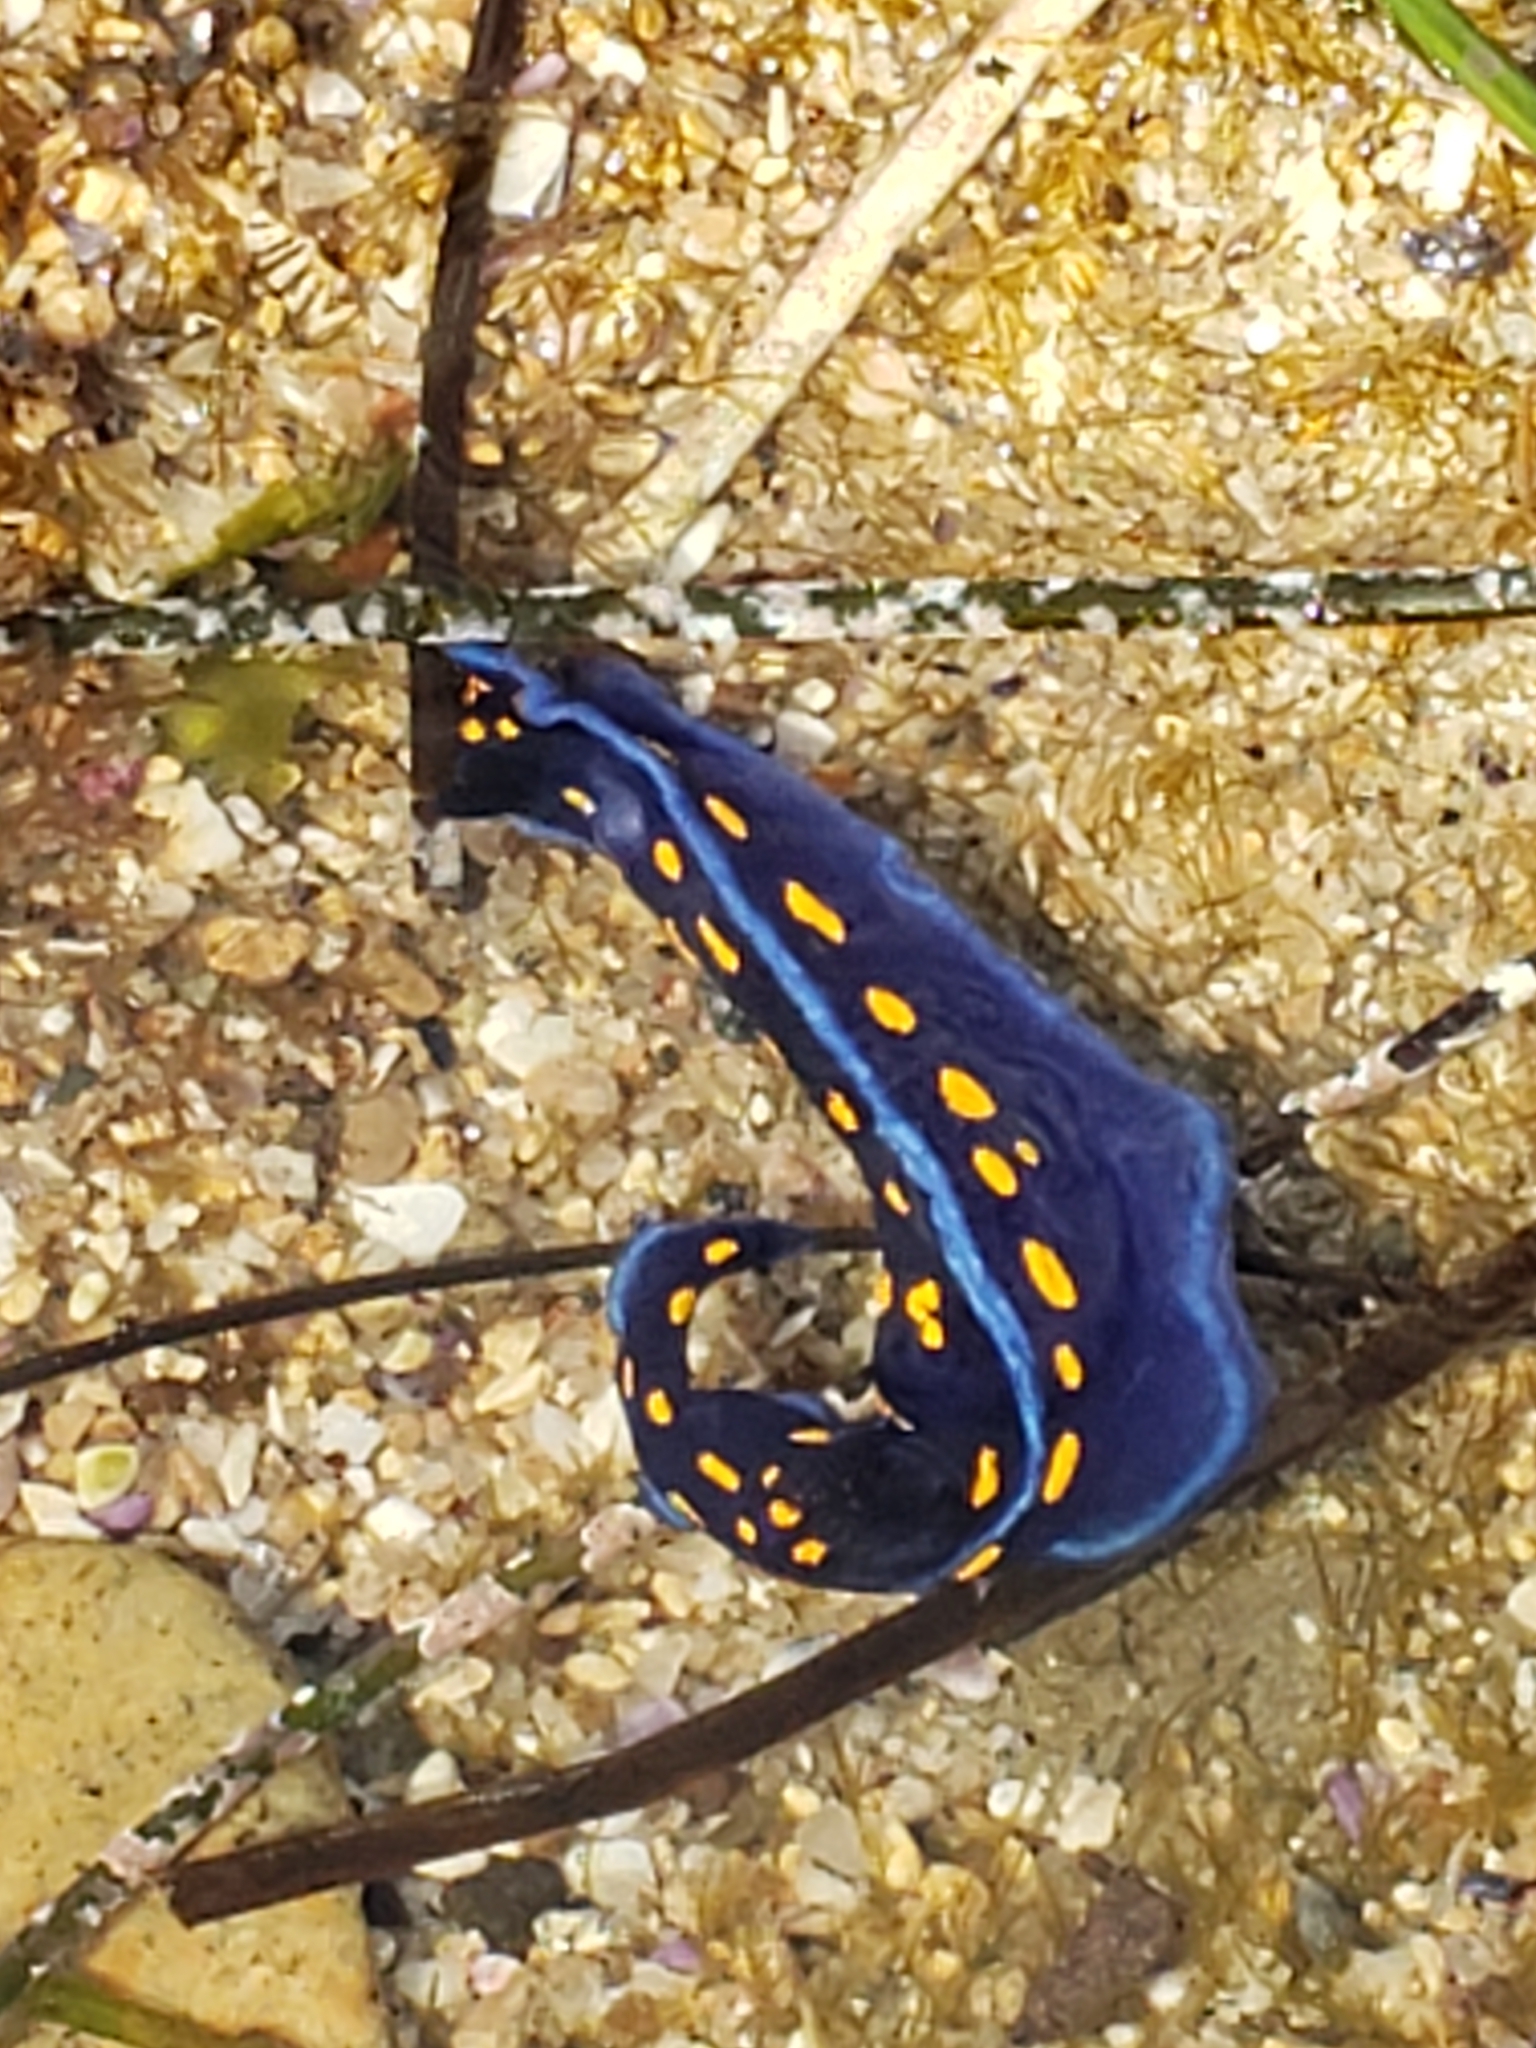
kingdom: Animalia
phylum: Mollusca
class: Gastropoda
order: Nudibranchia
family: Chromodorididae
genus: Felimare
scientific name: Felimare californiensis
